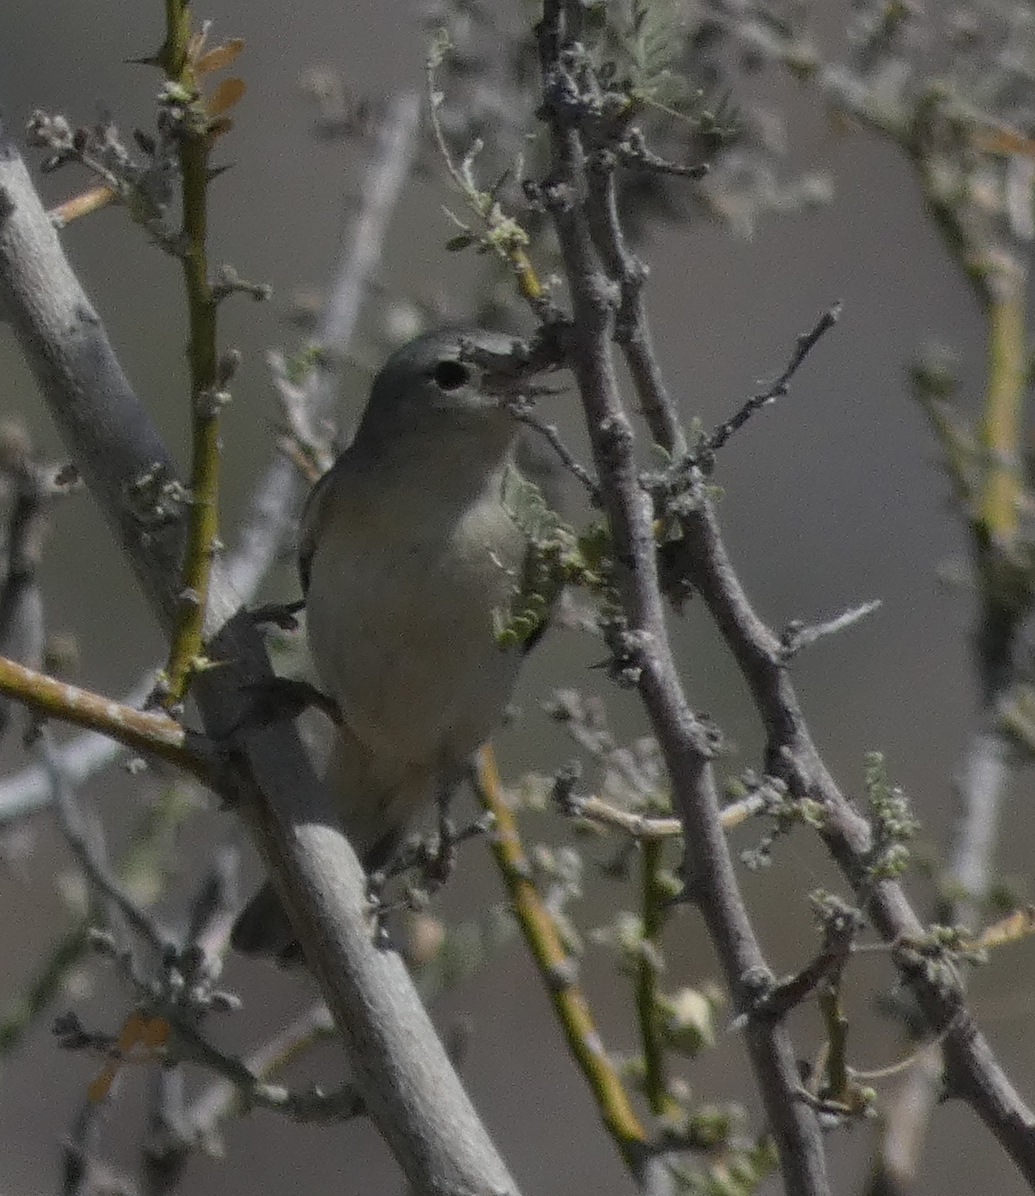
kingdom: Animalia
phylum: Chordata
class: Aves
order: Passeriformes
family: Parulidae
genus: Leiothlypis
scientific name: Leiothlypis luciae
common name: Lucy's warbler
